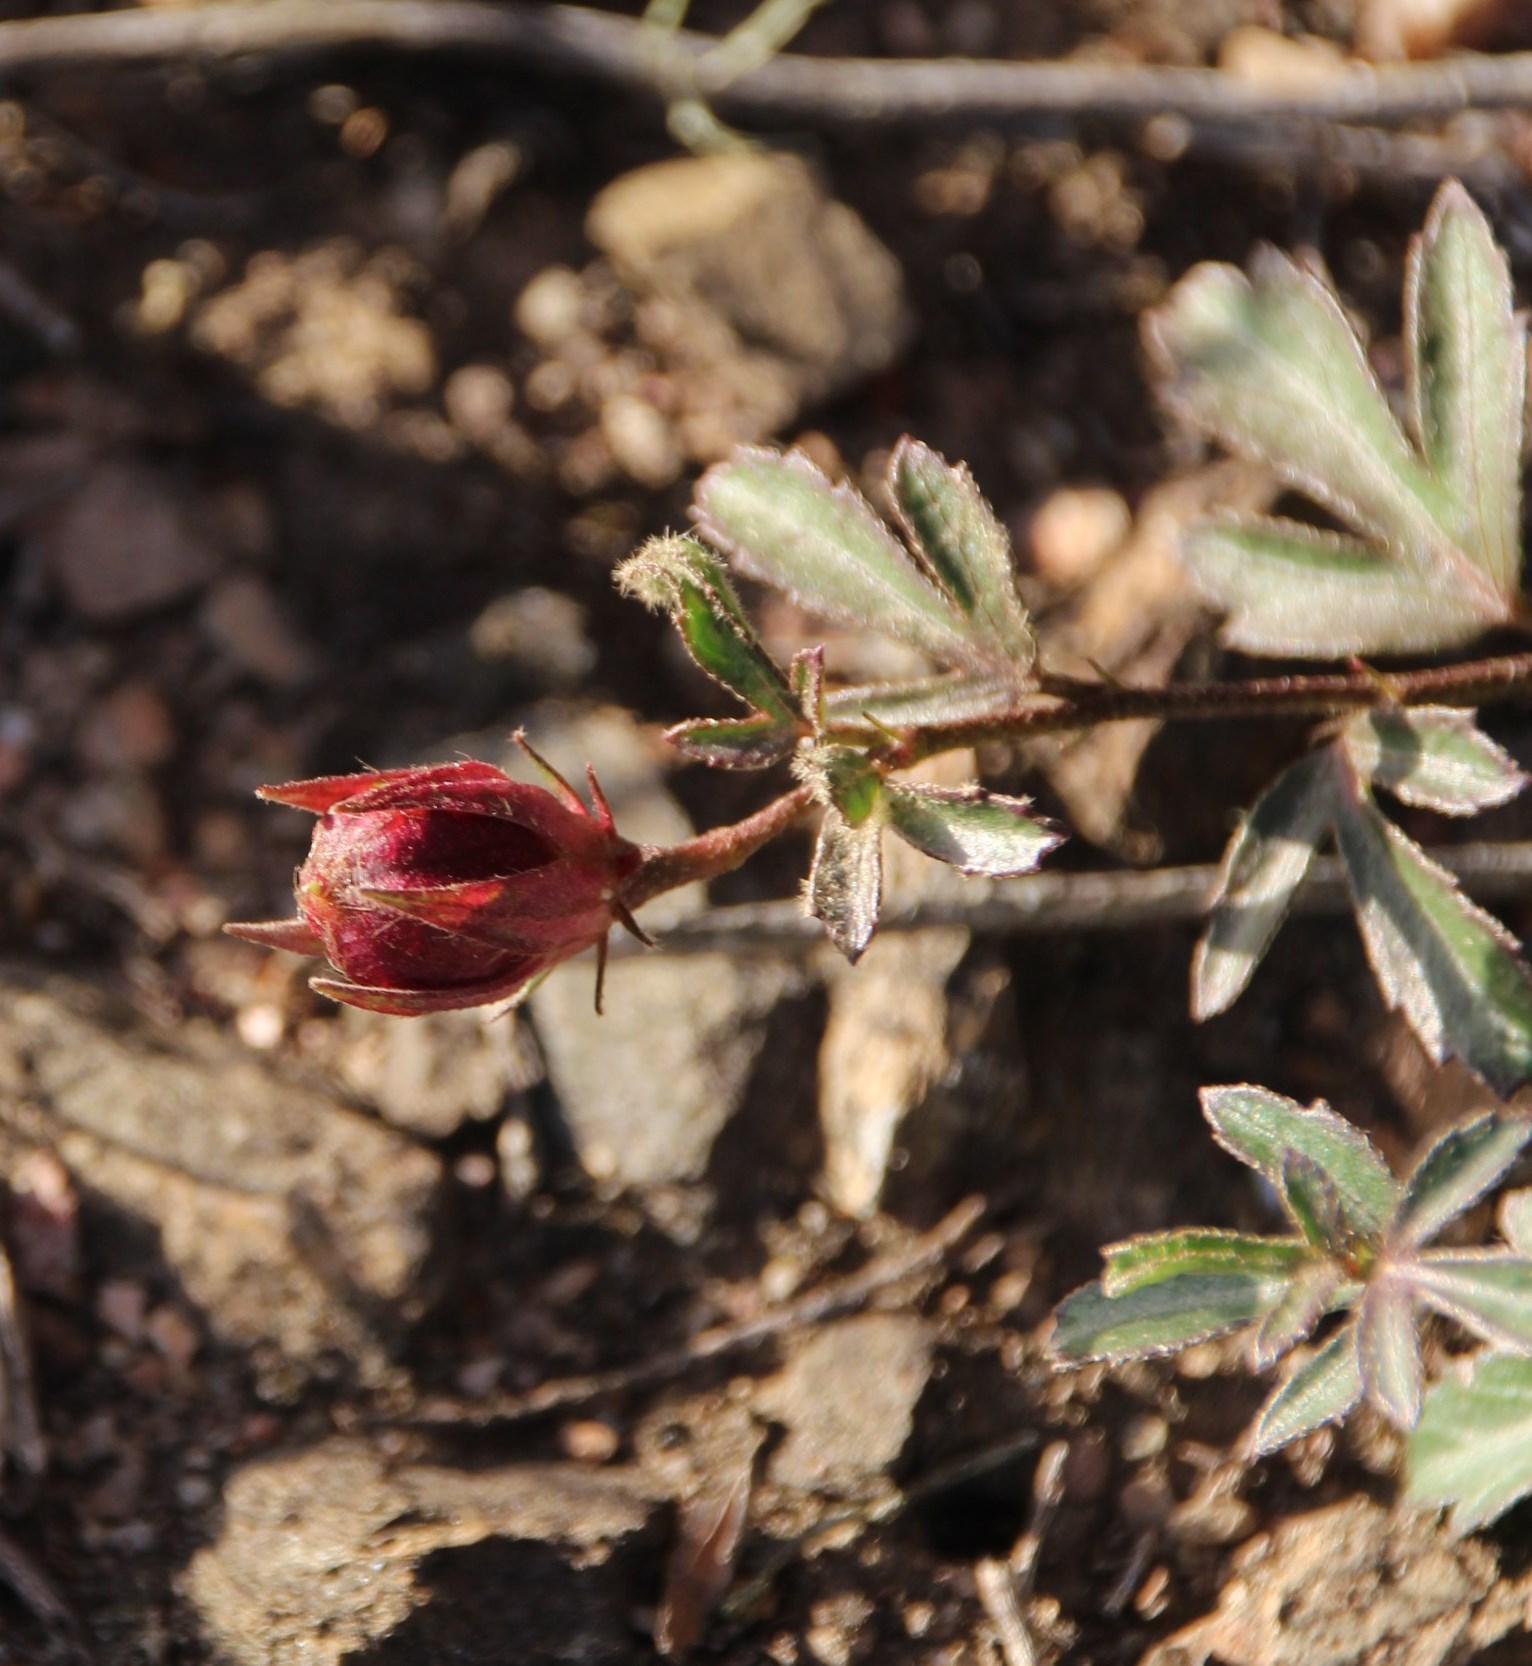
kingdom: Plantae
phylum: Tracheophyta
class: Magnoliopsida
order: Malvales
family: Malvaceae
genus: Hibiscus
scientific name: Hibiscus pusillus
